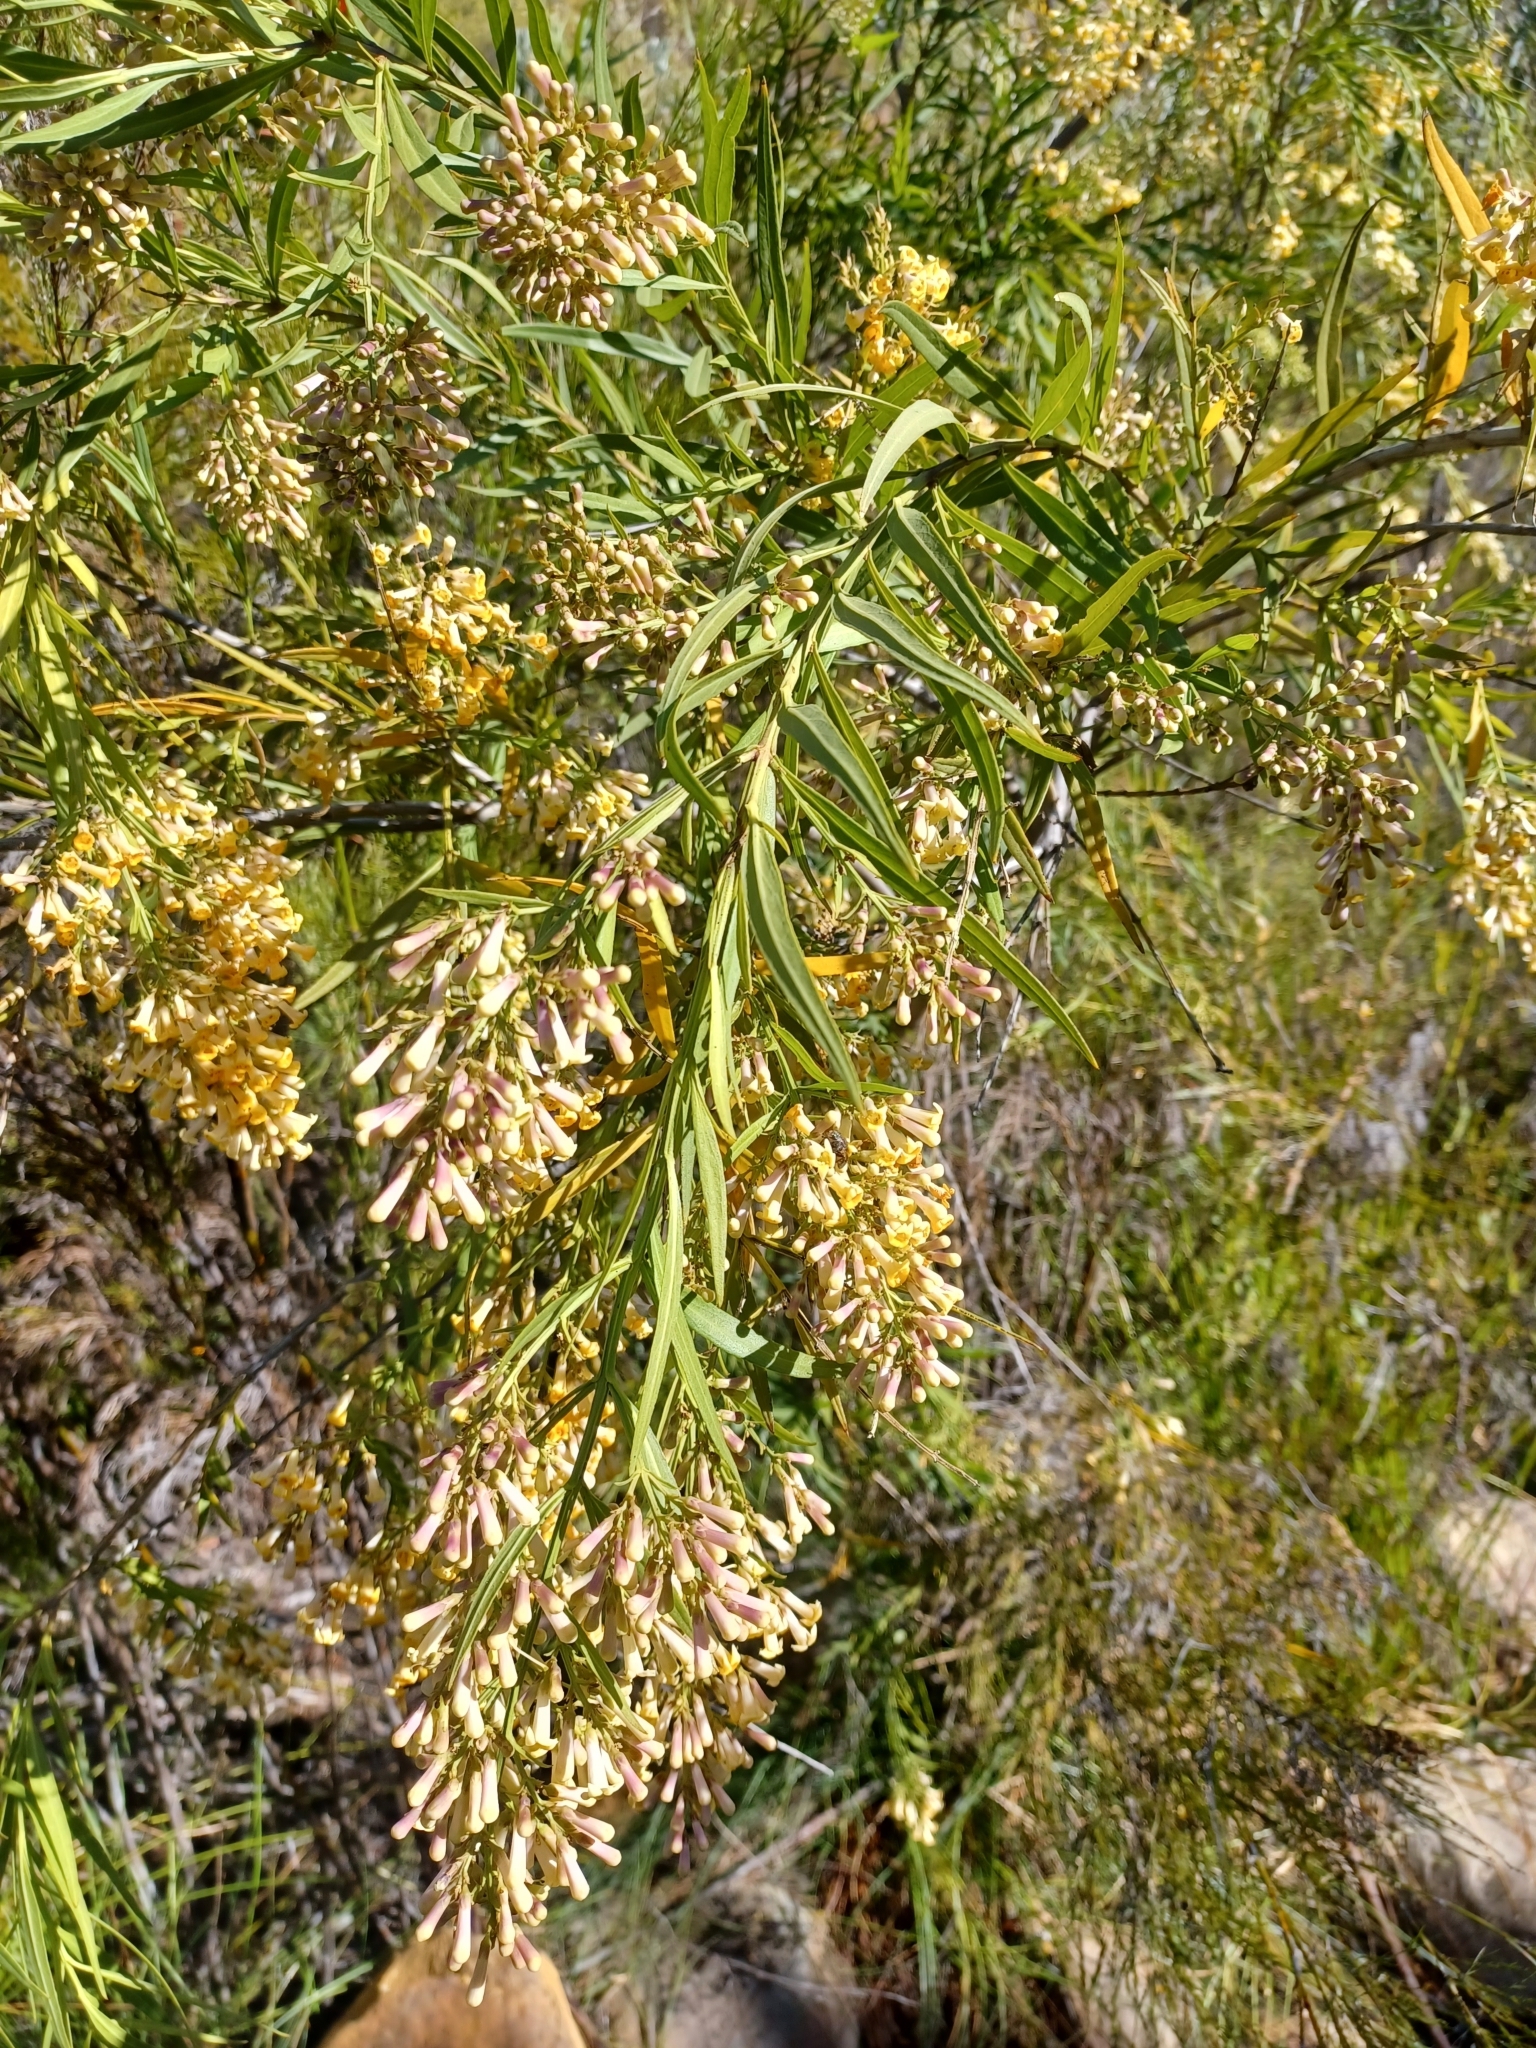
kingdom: Plantae
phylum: Tracheophyta
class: Magnoliopsida
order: Lamiales
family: Scrophulariaceae
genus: Freylinia
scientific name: Freylinia lanceolata
